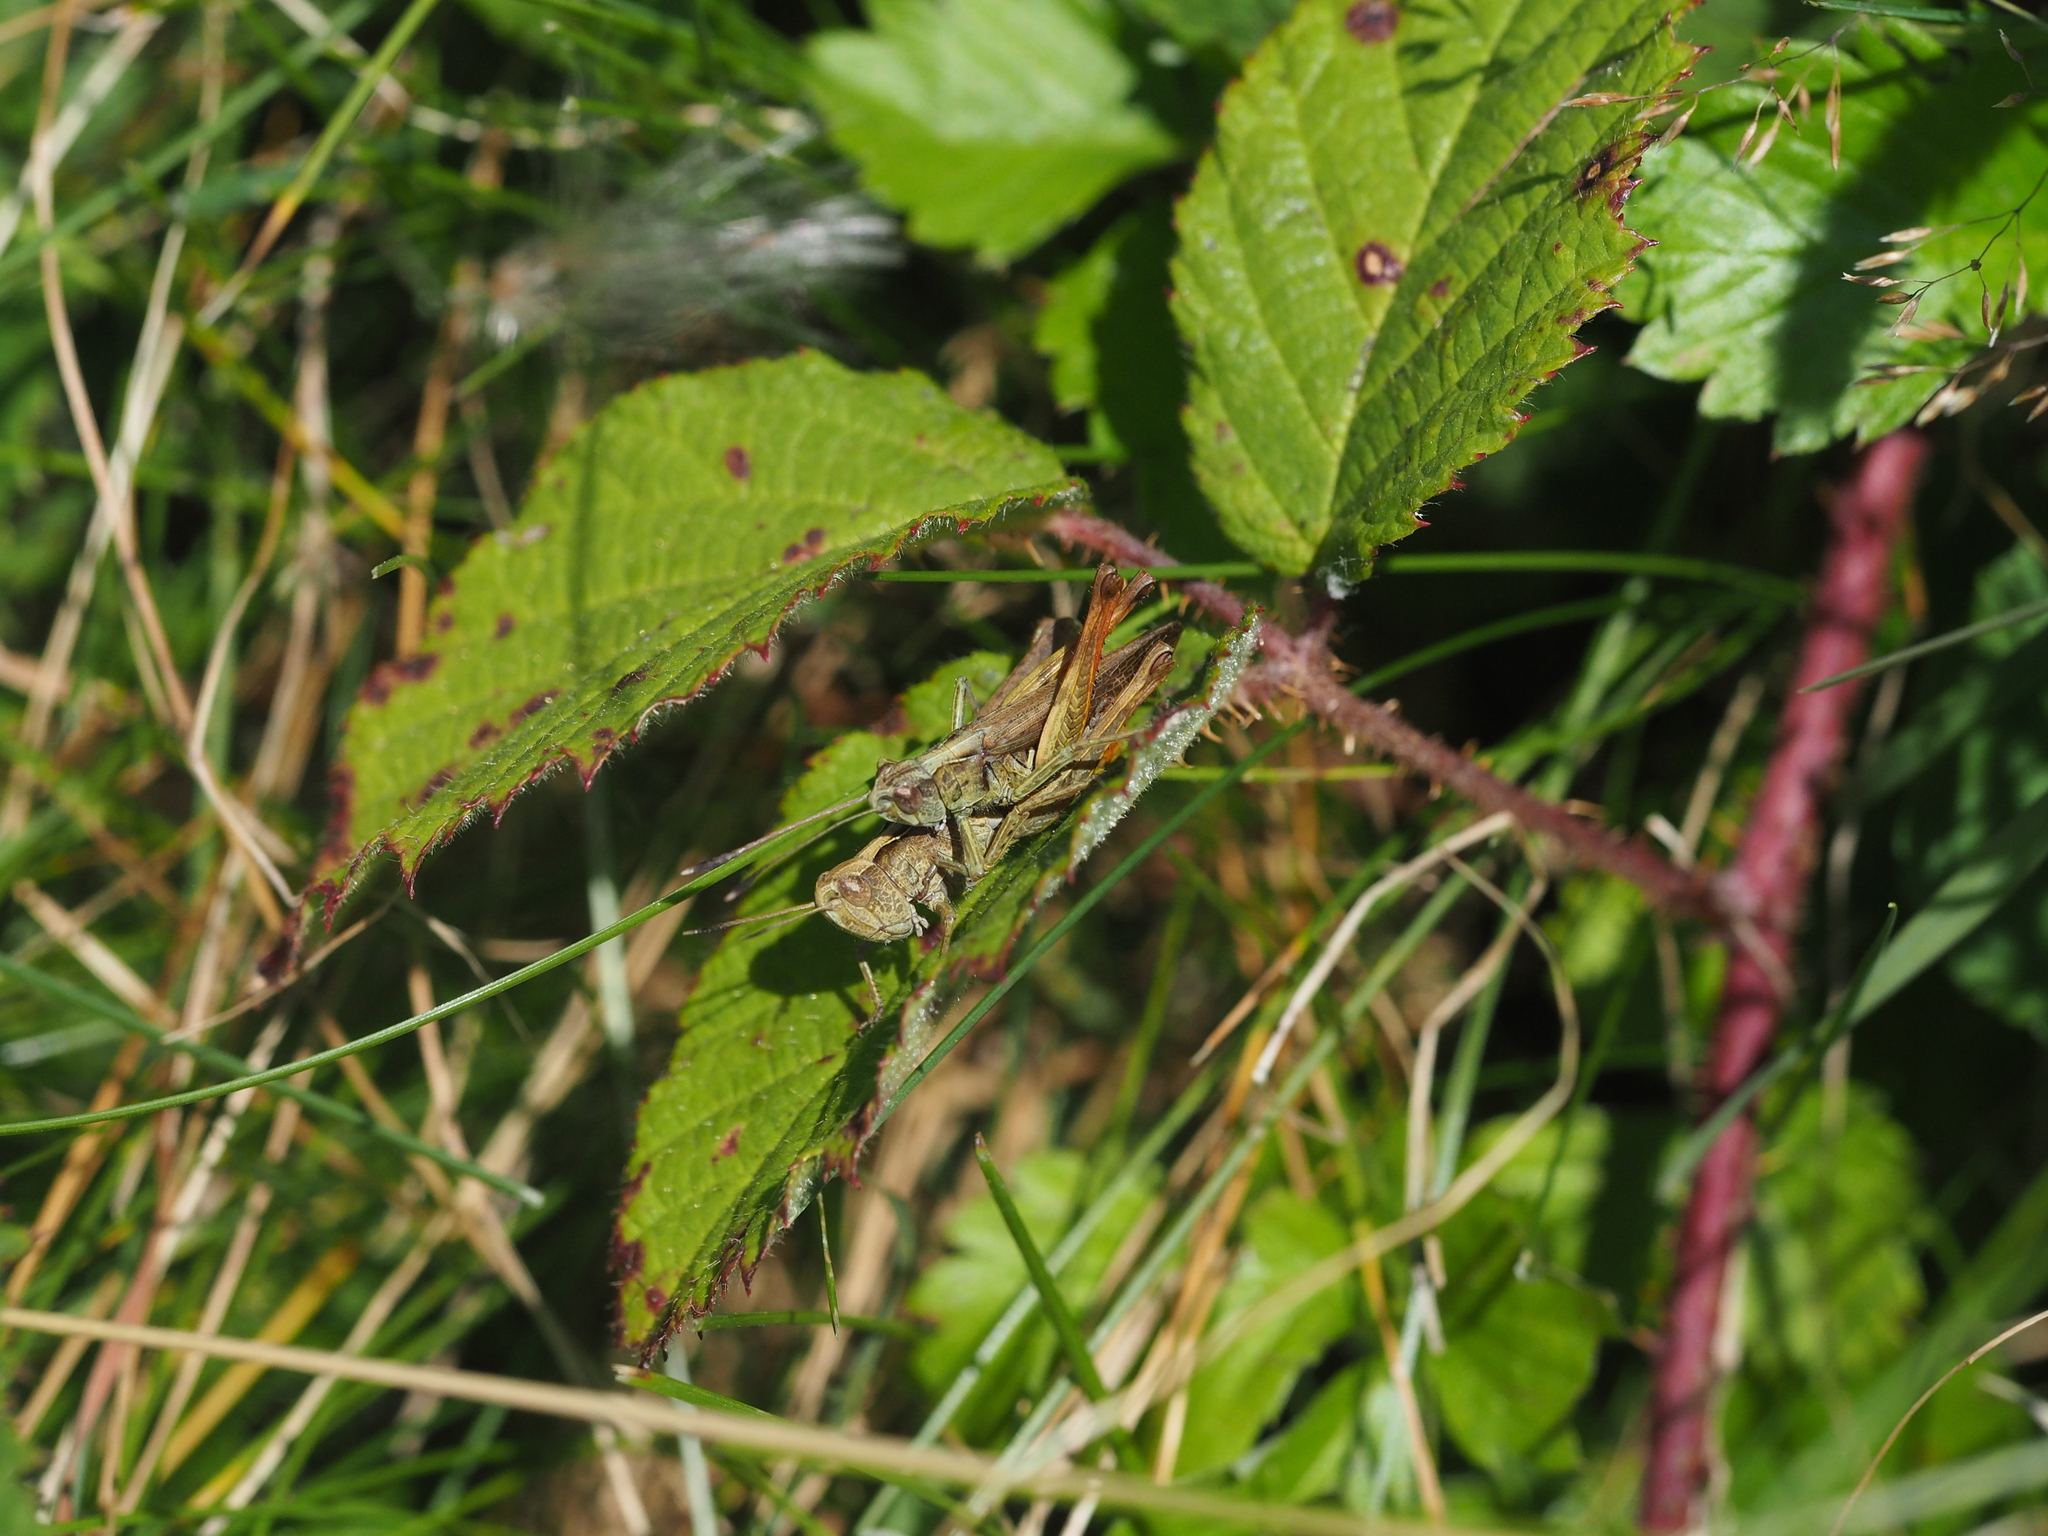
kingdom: Animalia
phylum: Arthropoda
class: Insecta
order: Orthoptera
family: Acrididae
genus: Gomphocerippus
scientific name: Gomphocerippus rufus
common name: Rufous grasshopper
